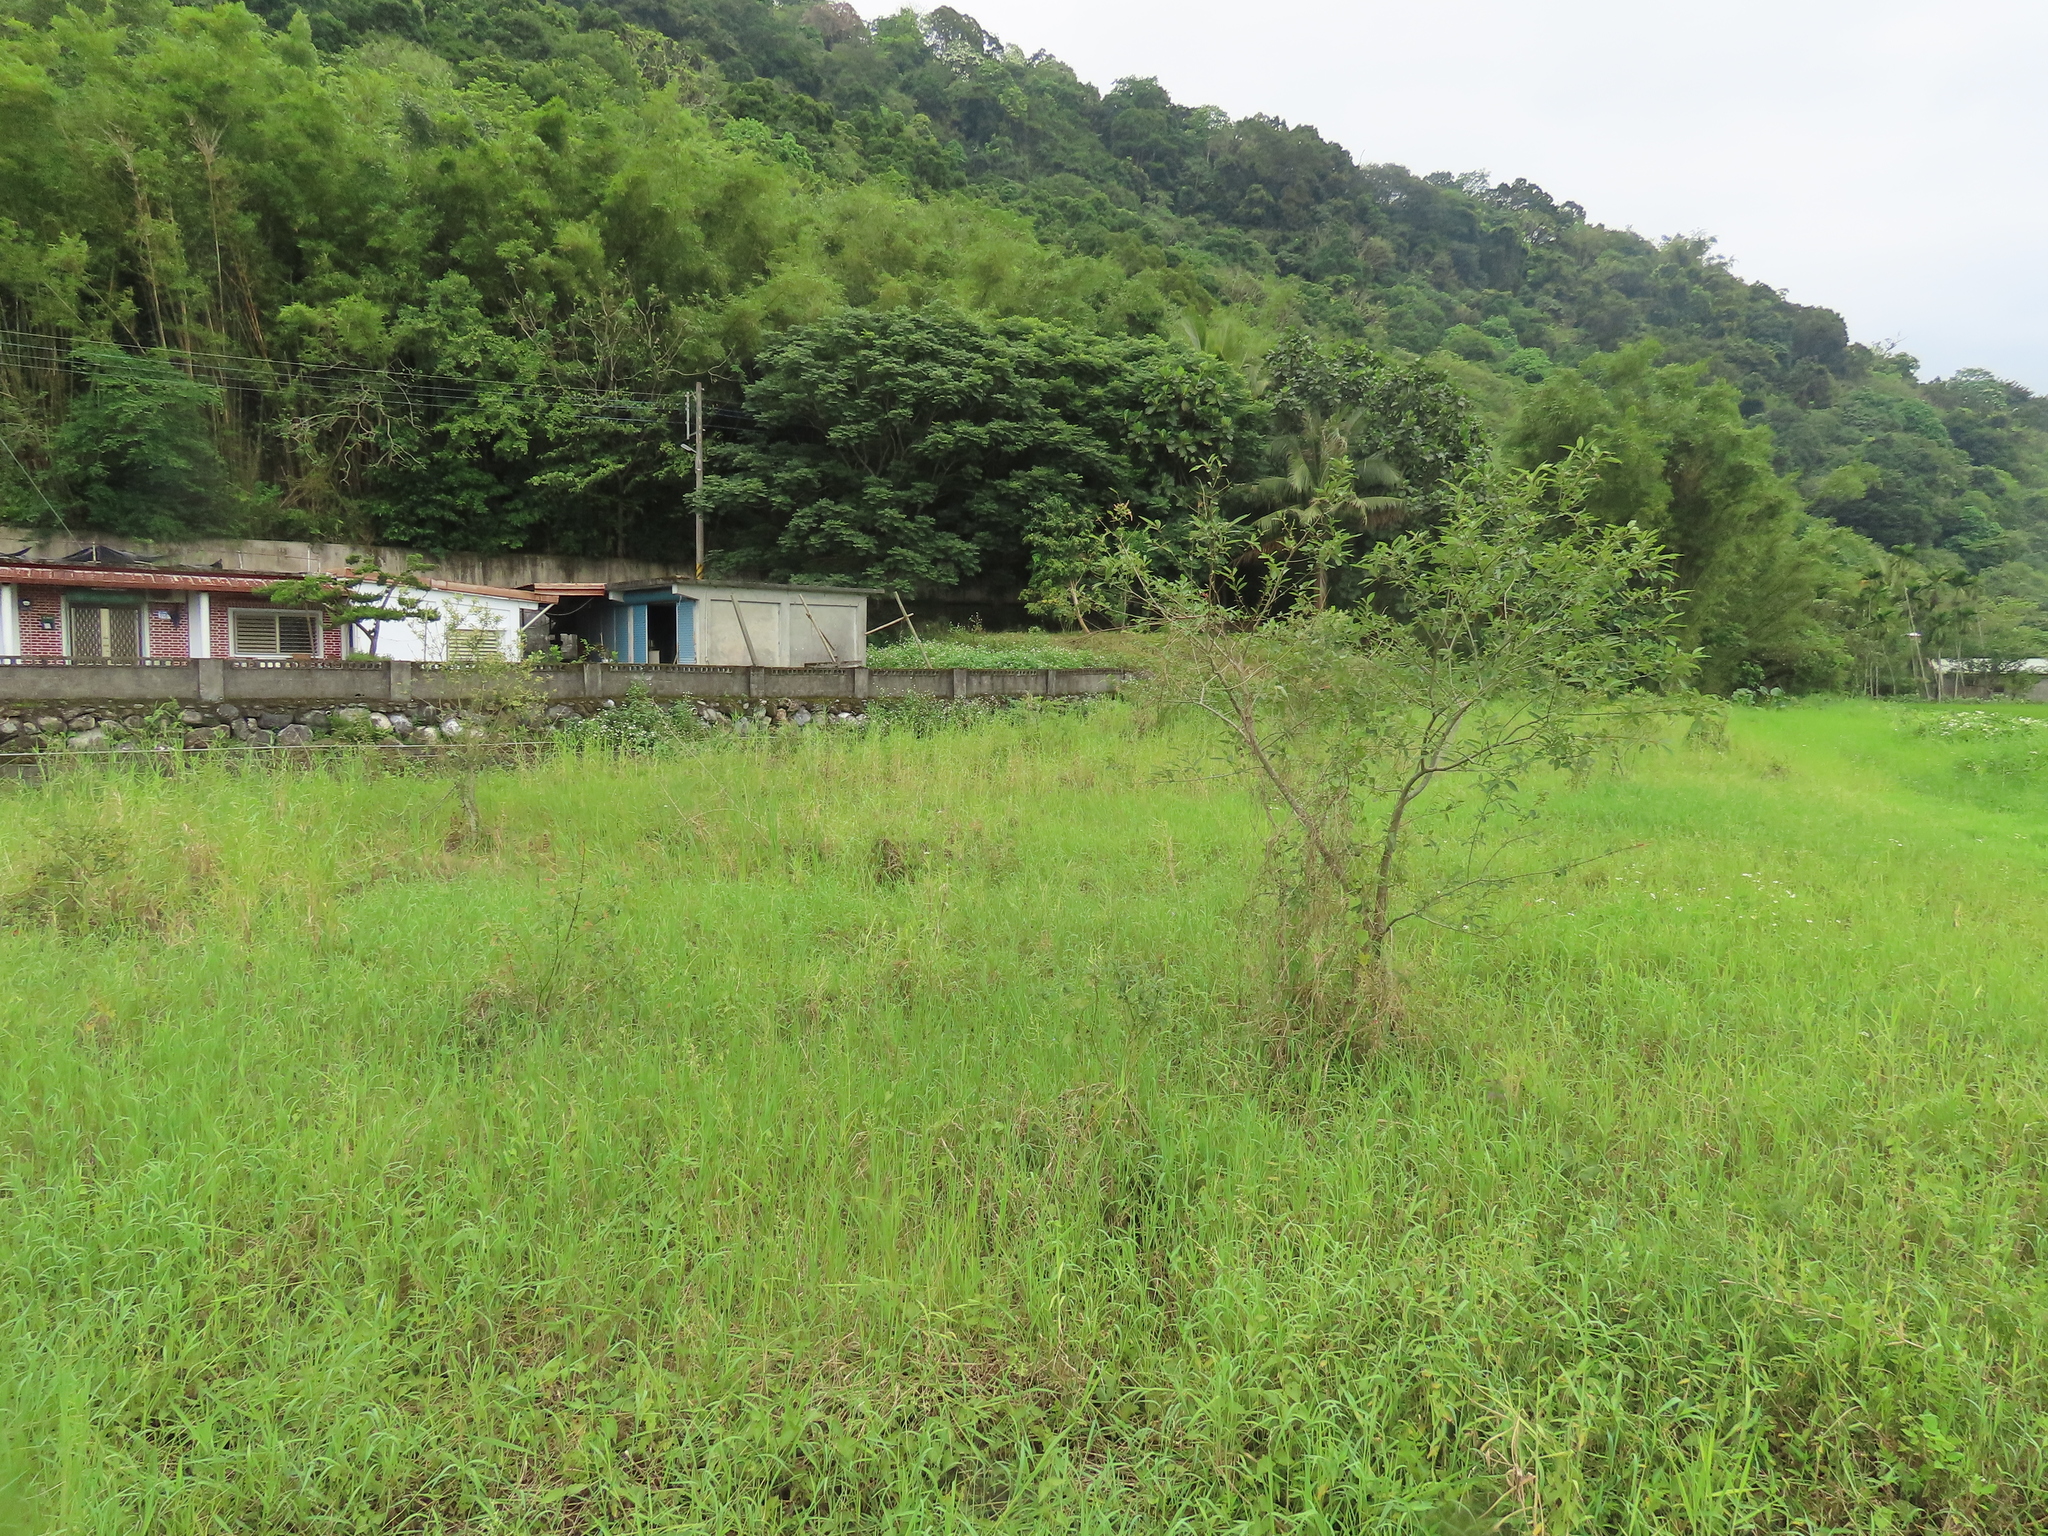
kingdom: Plantae
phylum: Tracheophyta
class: Magnoliopsida
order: Malpighiales
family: Salicaceae
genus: Salix
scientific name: Salix mesnyi
